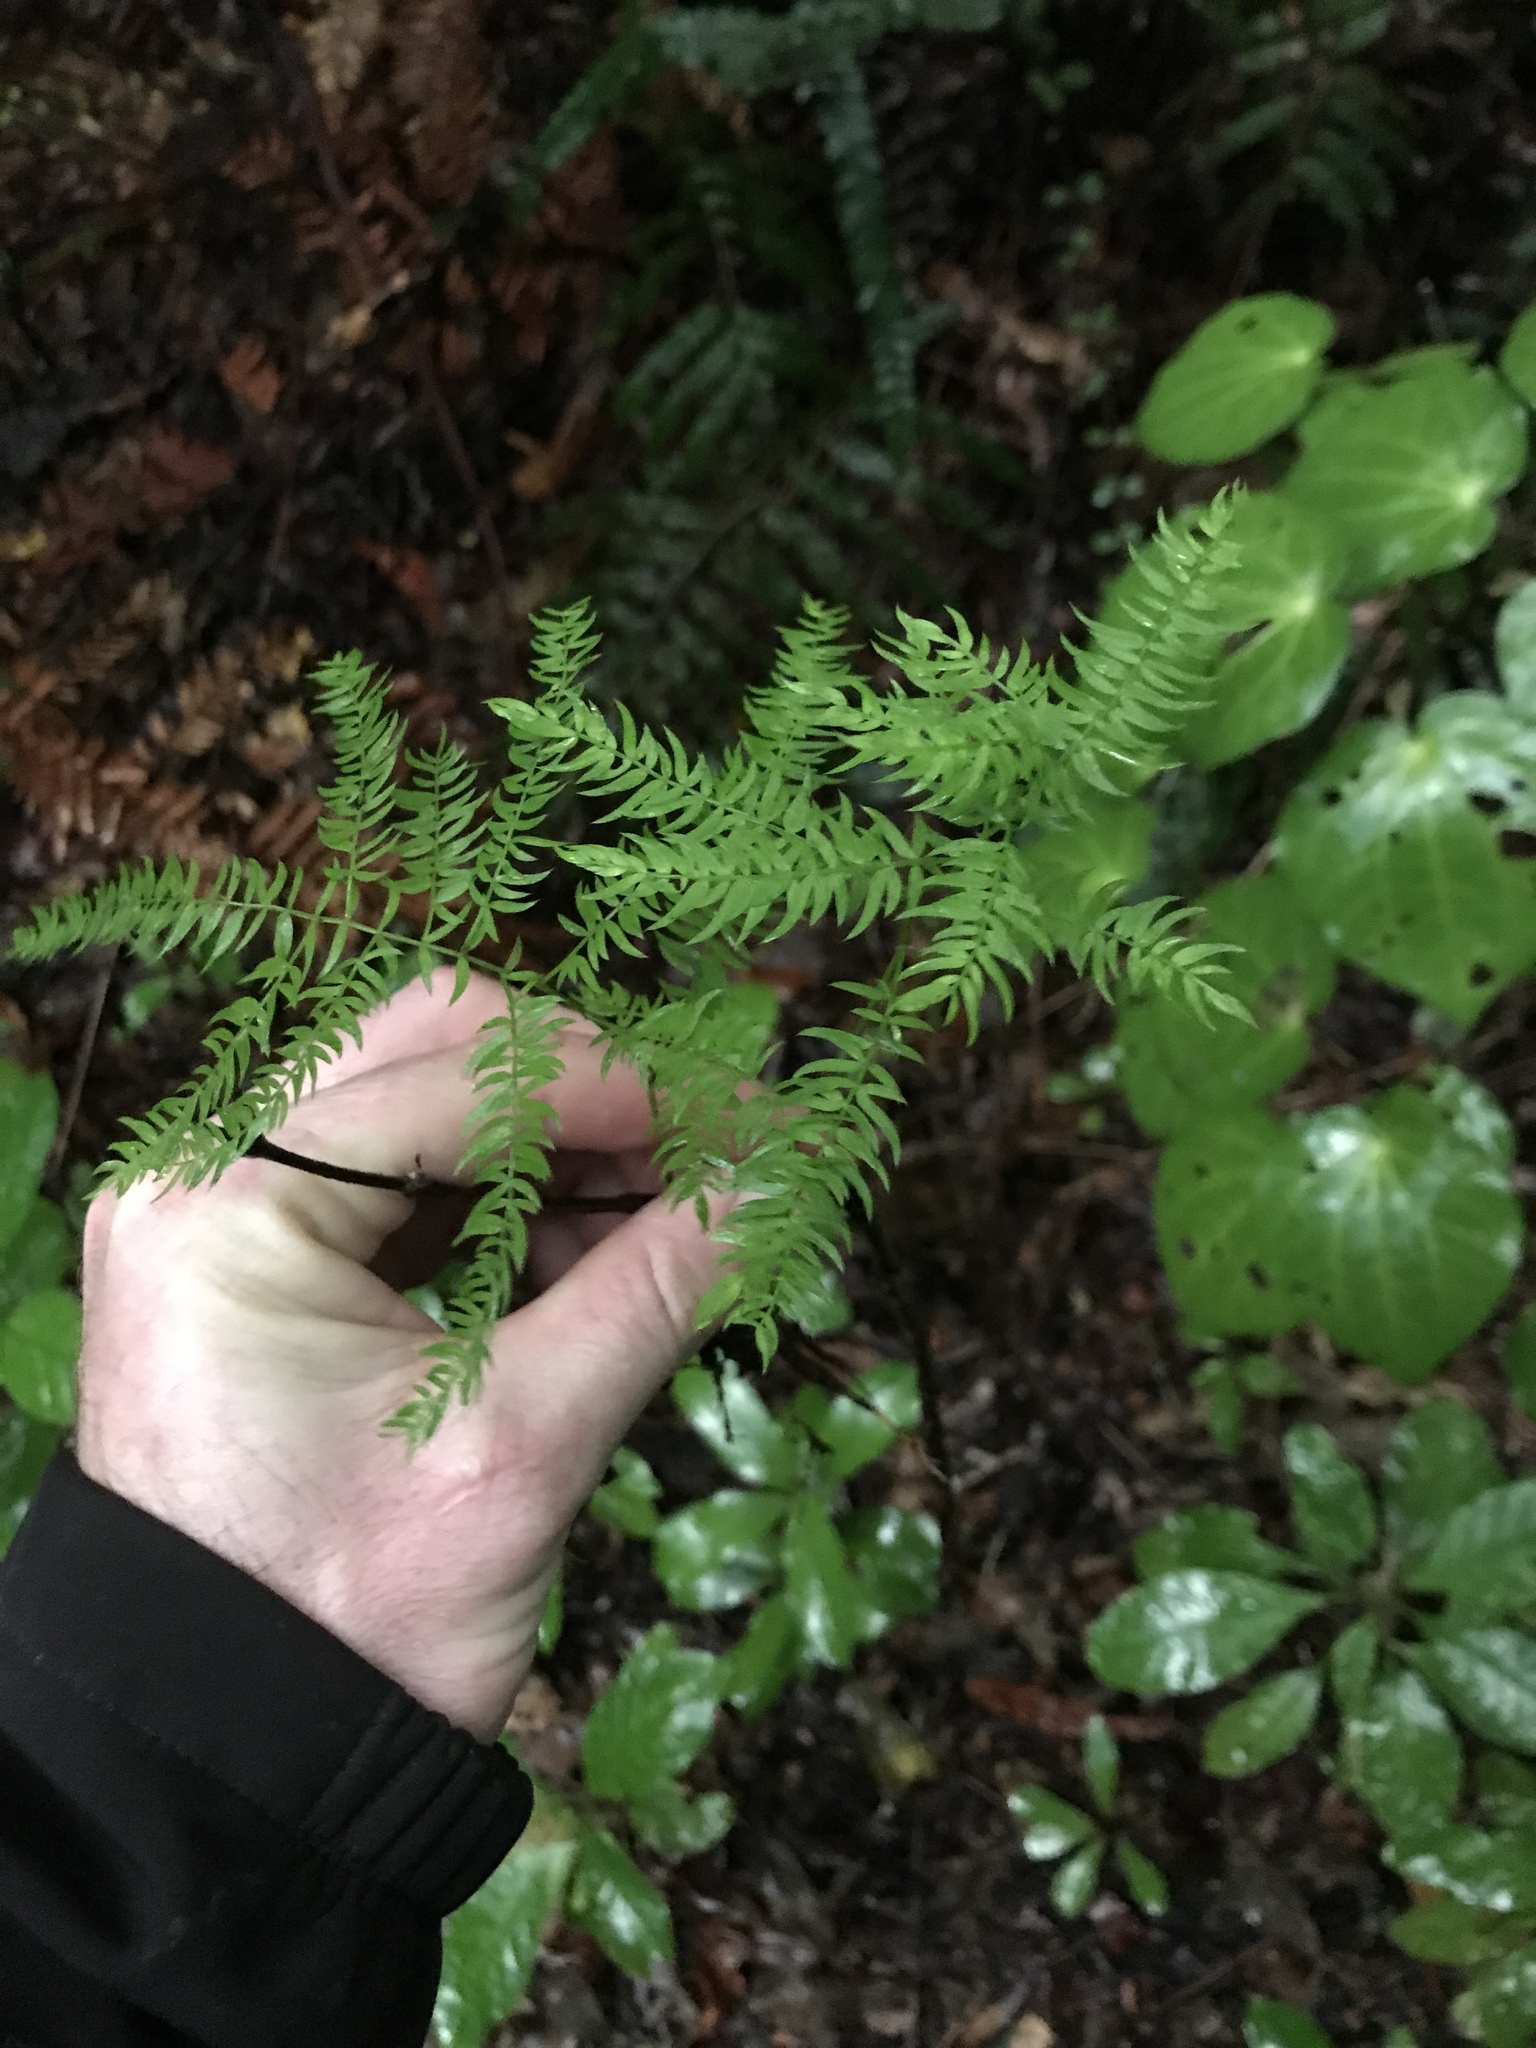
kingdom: Plantae
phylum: Tracheophyta
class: Liliopsida
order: Asparagales
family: Asparagaceae
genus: Asparagus
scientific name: Asparagus scandens
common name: Asparagus-fern
